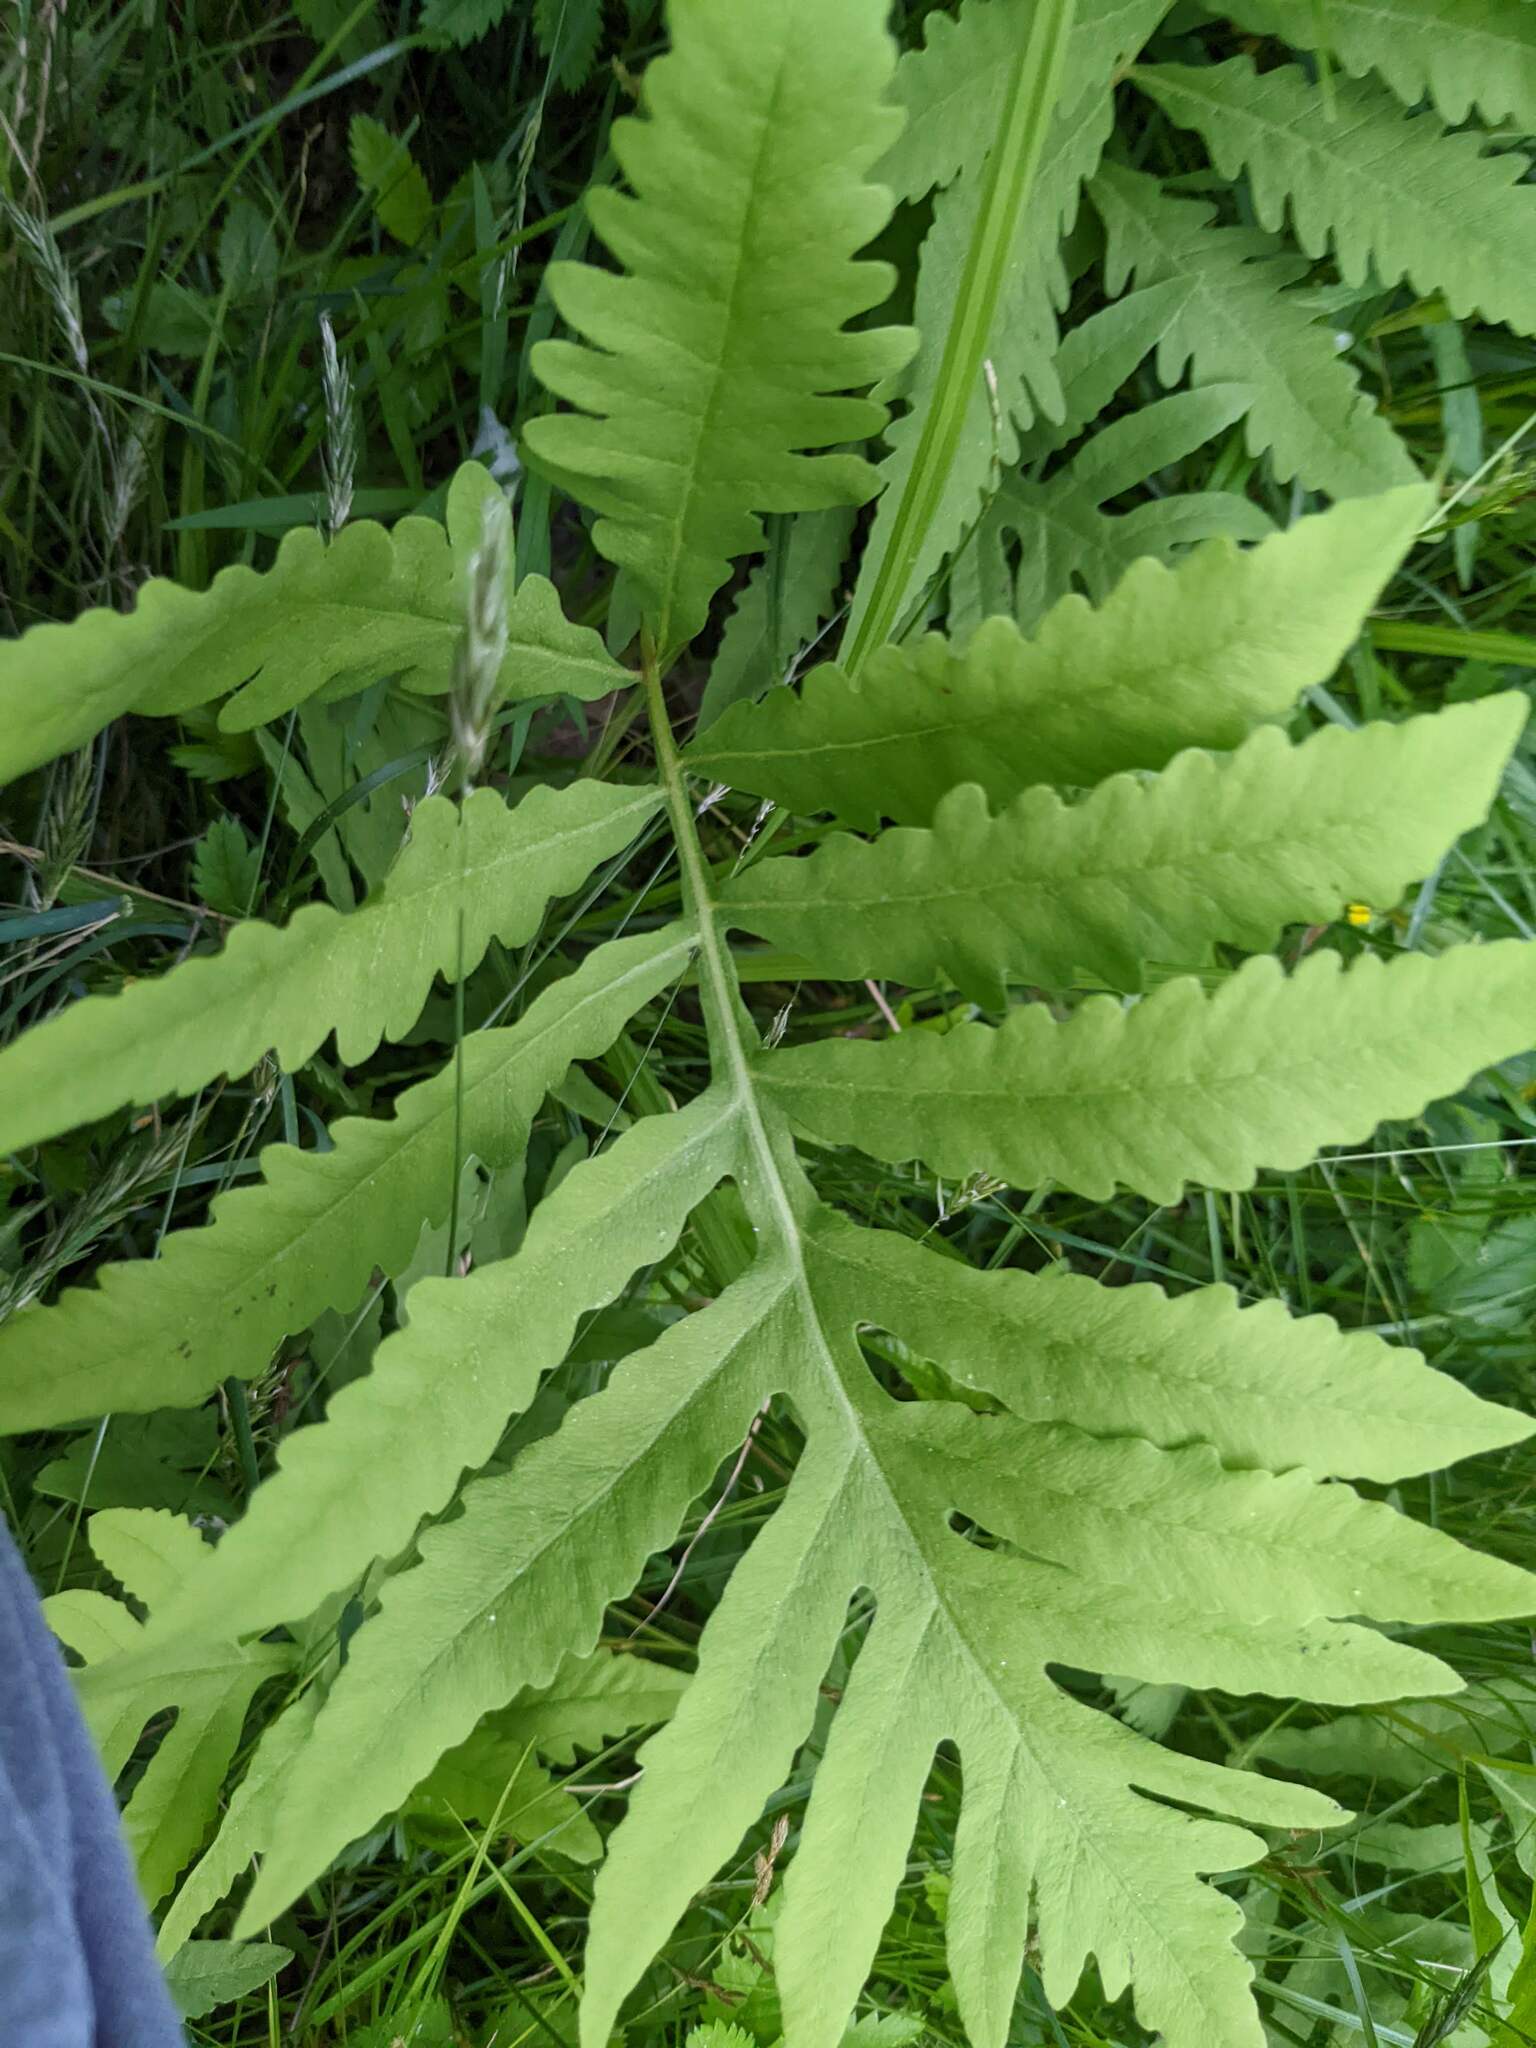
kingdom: Plantae
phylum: Tracheophyta
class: Polypodiopsida
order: Polypodiales
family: Onocleaceae
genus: Onoclea
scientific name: Onoclea sensibilis
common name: Sensitive fern
